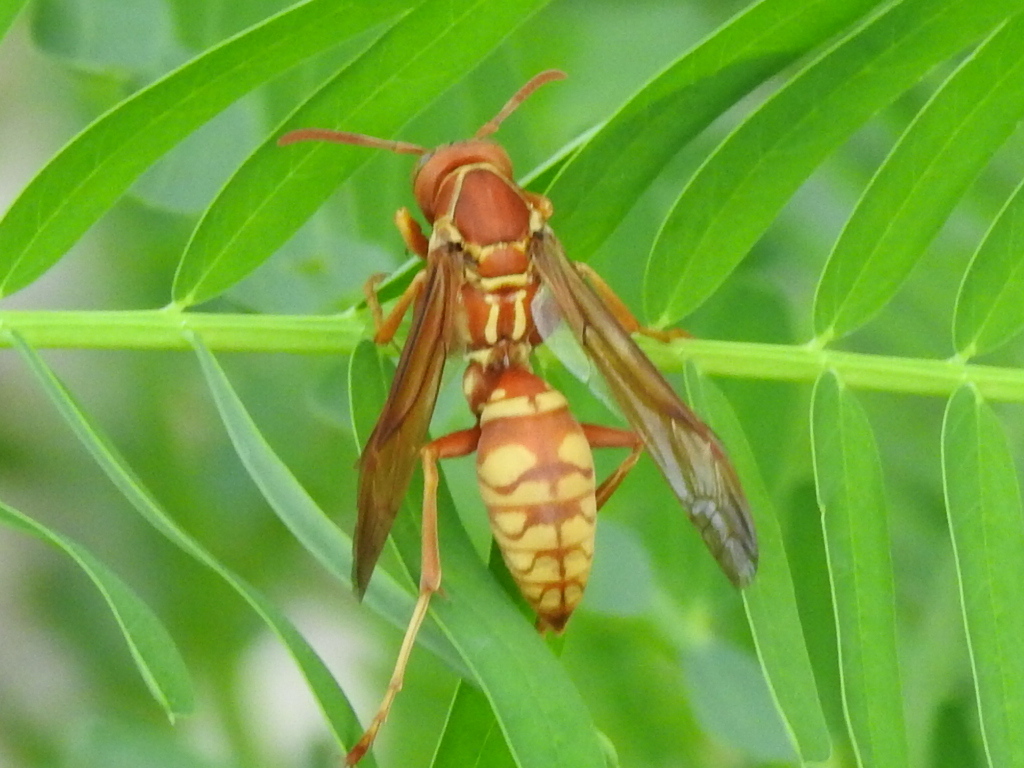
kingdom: Animalia
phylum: Arthropoda
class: Insecta
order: Hymenoptera
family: Eumenidae
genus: Polistes
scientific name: Polistes apachus
